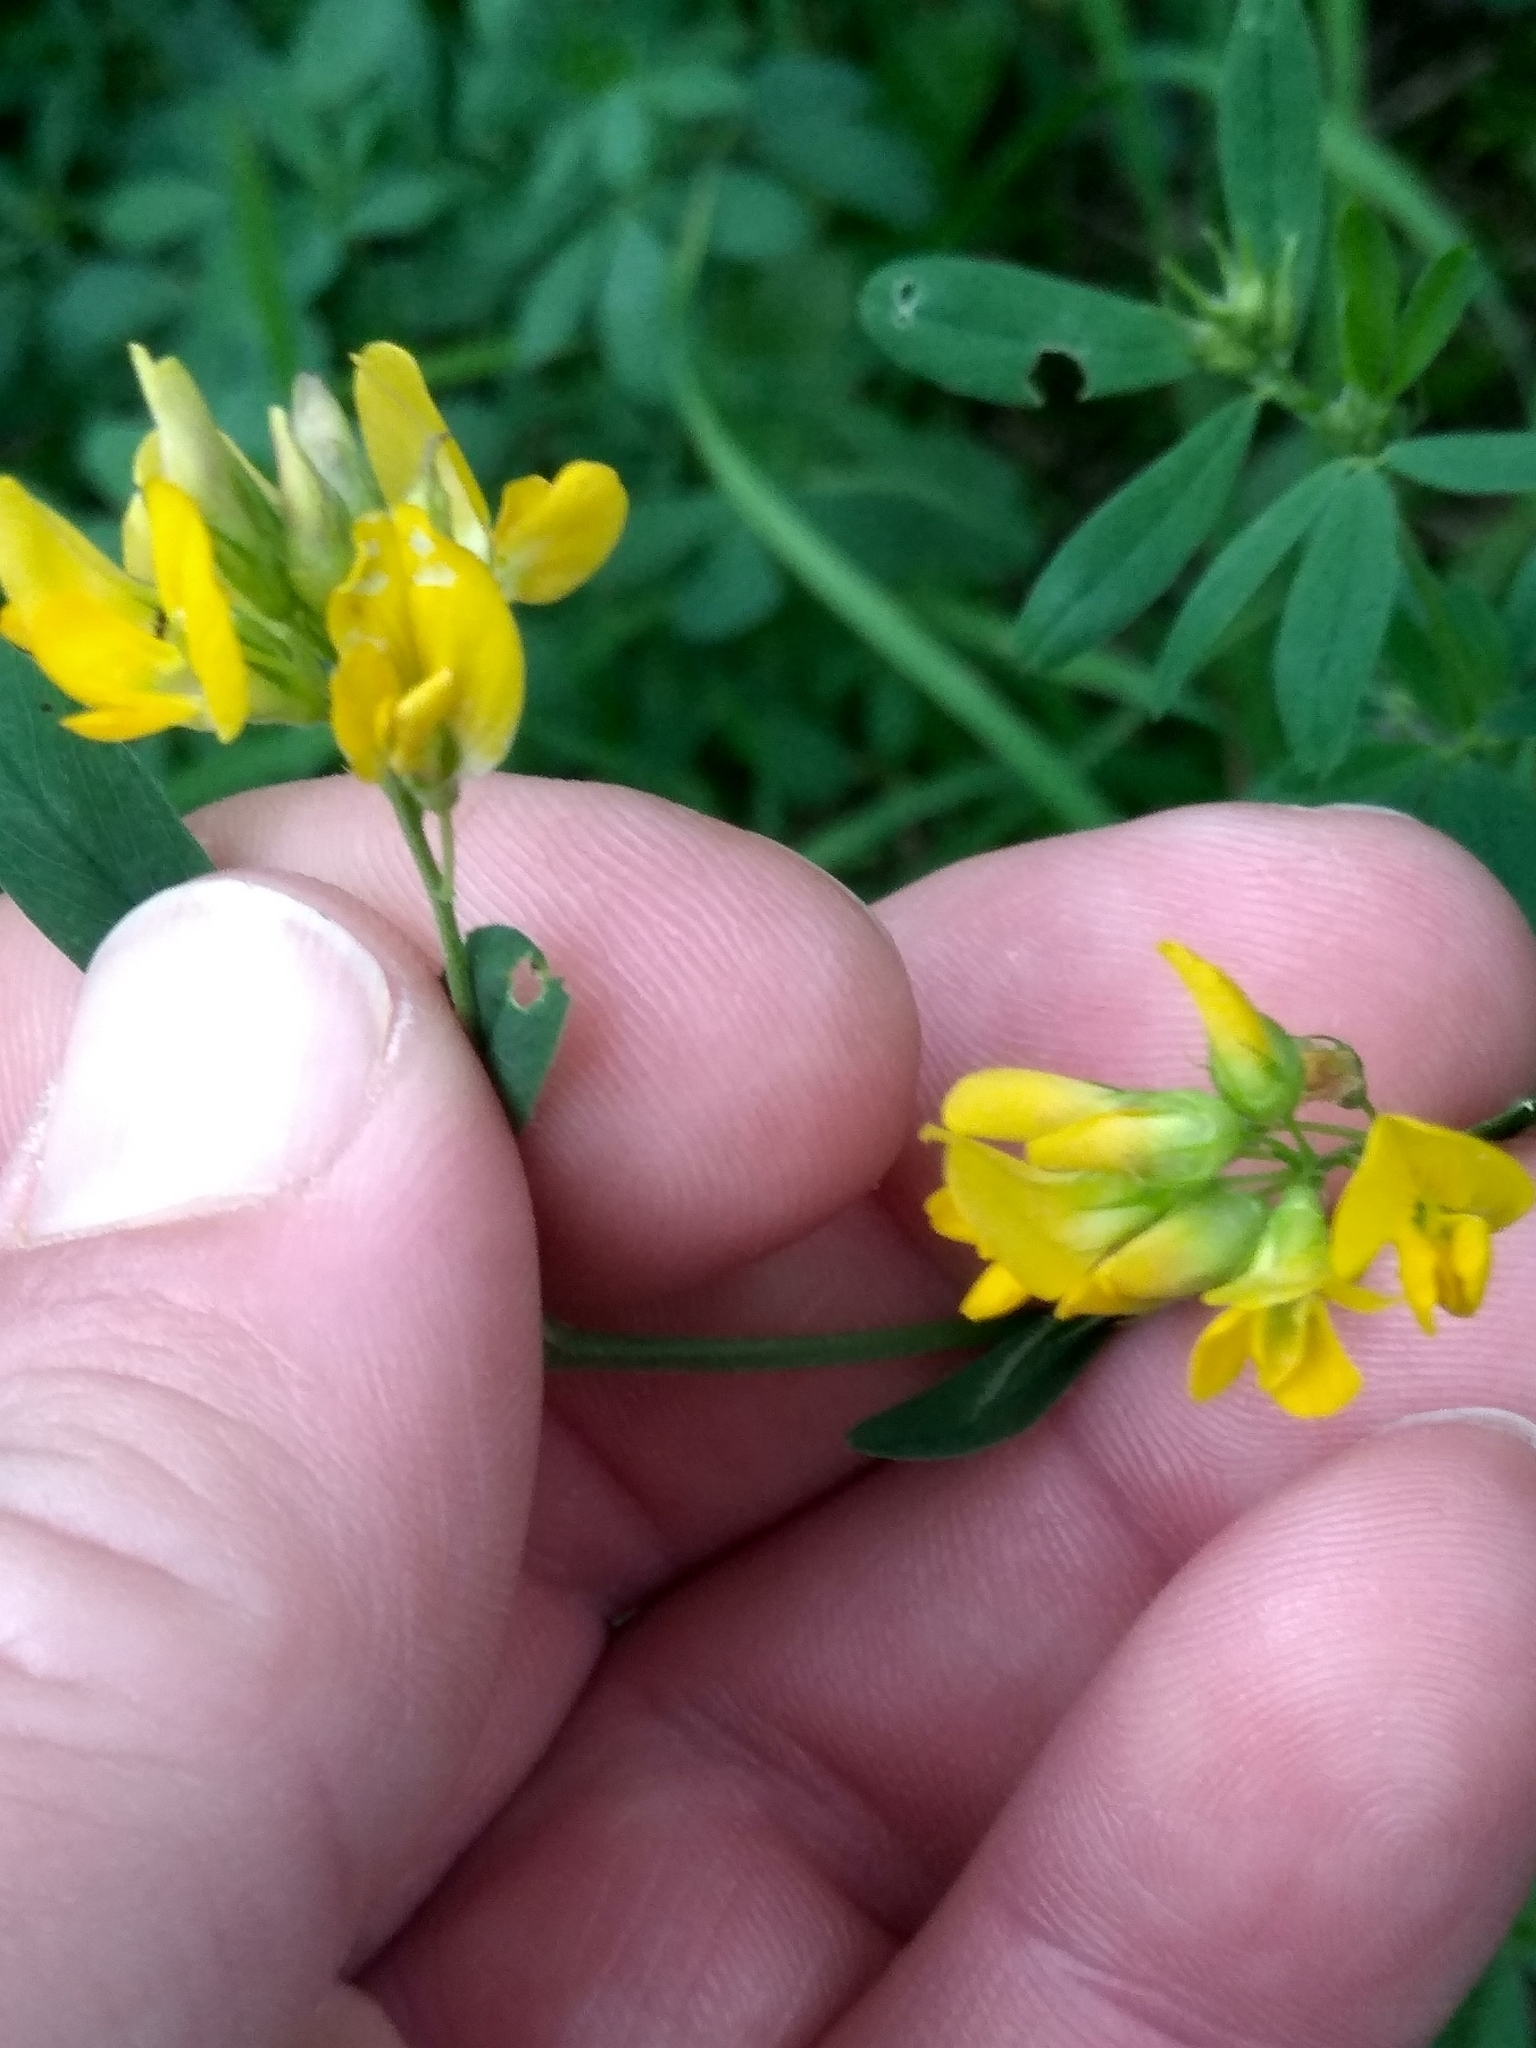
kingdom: Plantae
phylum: Tracheophyta
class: Magnoliopsida
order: Fabales
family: Fabaceae
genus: Medicago
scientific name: Medicago falcata
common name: Sickle medick
